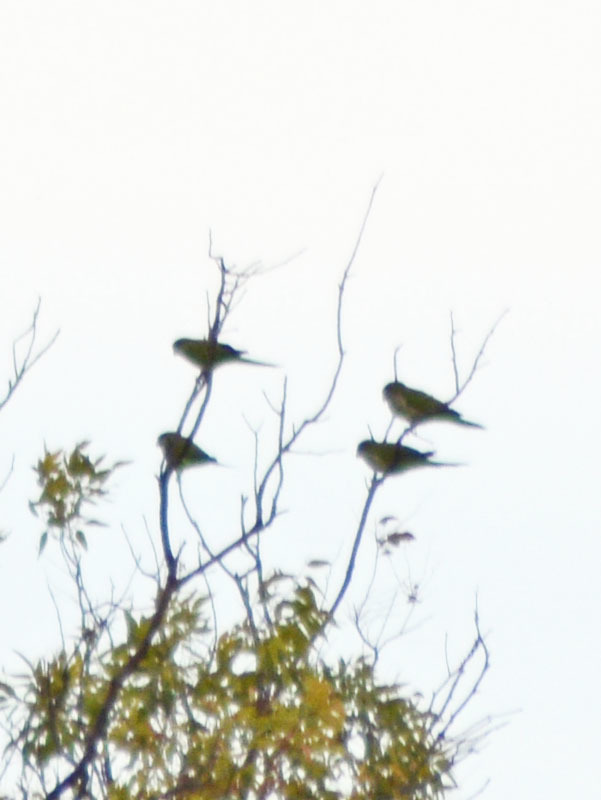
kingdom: Animalia
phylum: Chordata
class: Aves
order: Psittaciformes
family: Psittacidae
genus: Myiopsitta
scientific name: Myiopsitta monachus
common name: Monk parakeet
